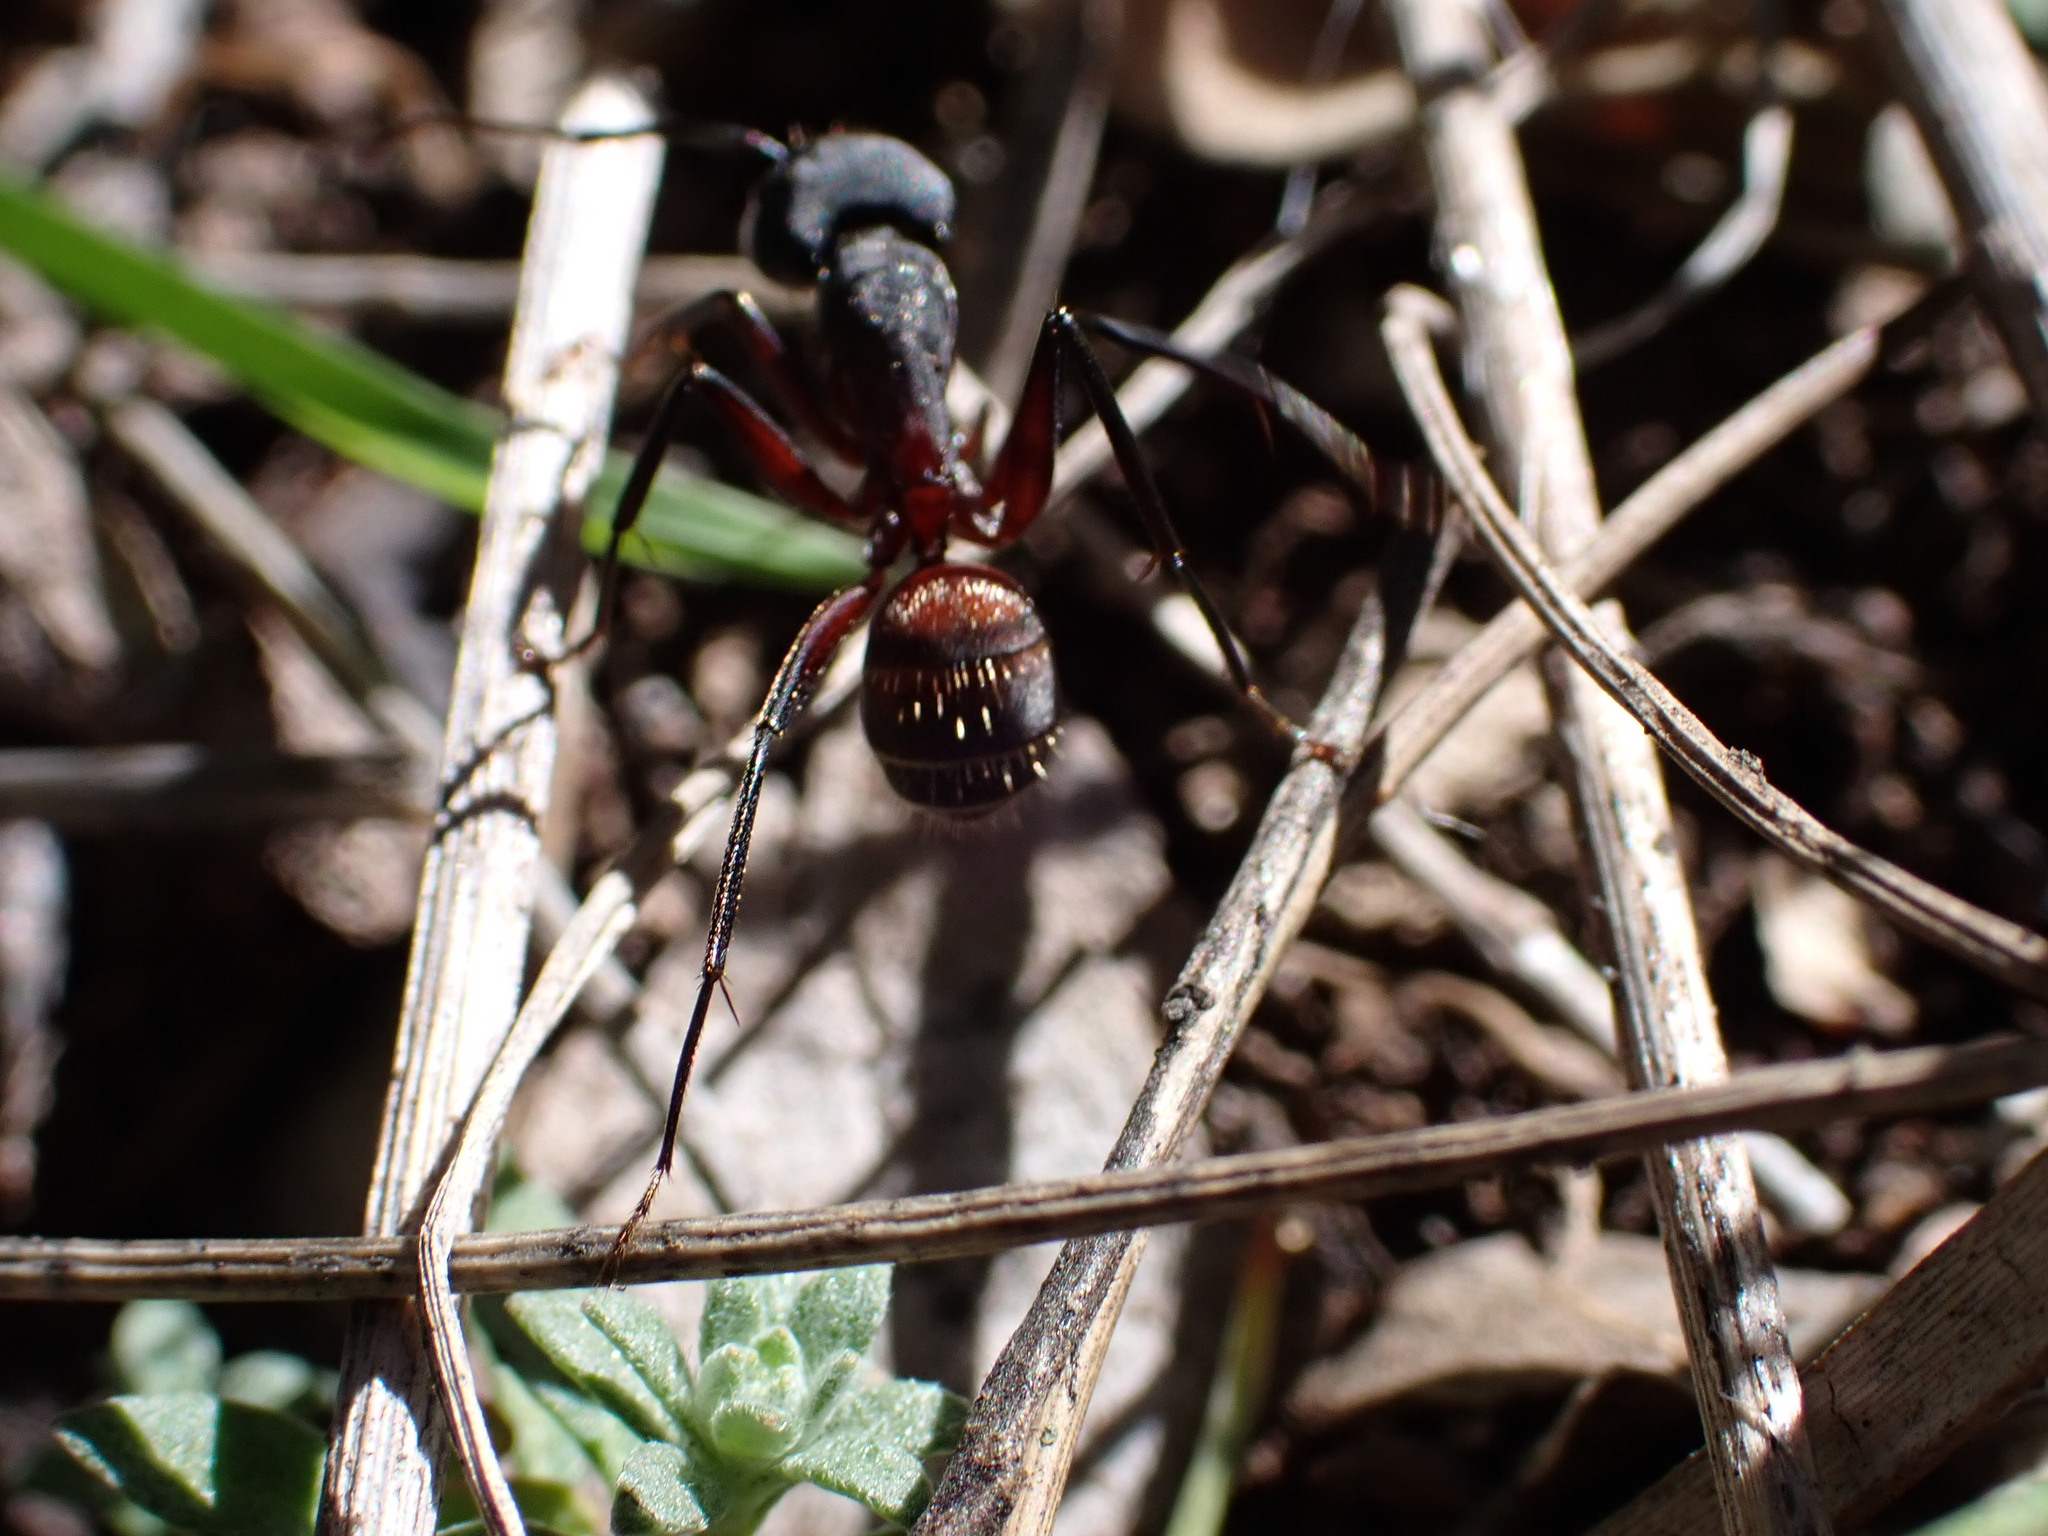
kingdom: Animalia
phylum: Arthropoda
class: Insecta
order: Hymenoptera
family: Formicidae
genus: Camponotus
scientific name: Camponotus cruentatus
